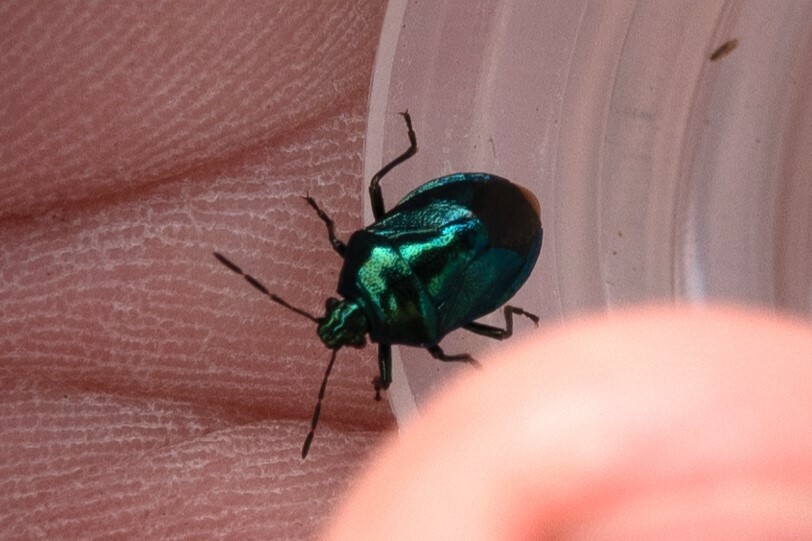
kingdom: Animalia
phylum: Arthropoda
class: Insecta
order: Hemiptera
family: Pentatomidae
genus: Zicrona
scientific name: Zicrona caerulea
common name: Blue shieldbug
